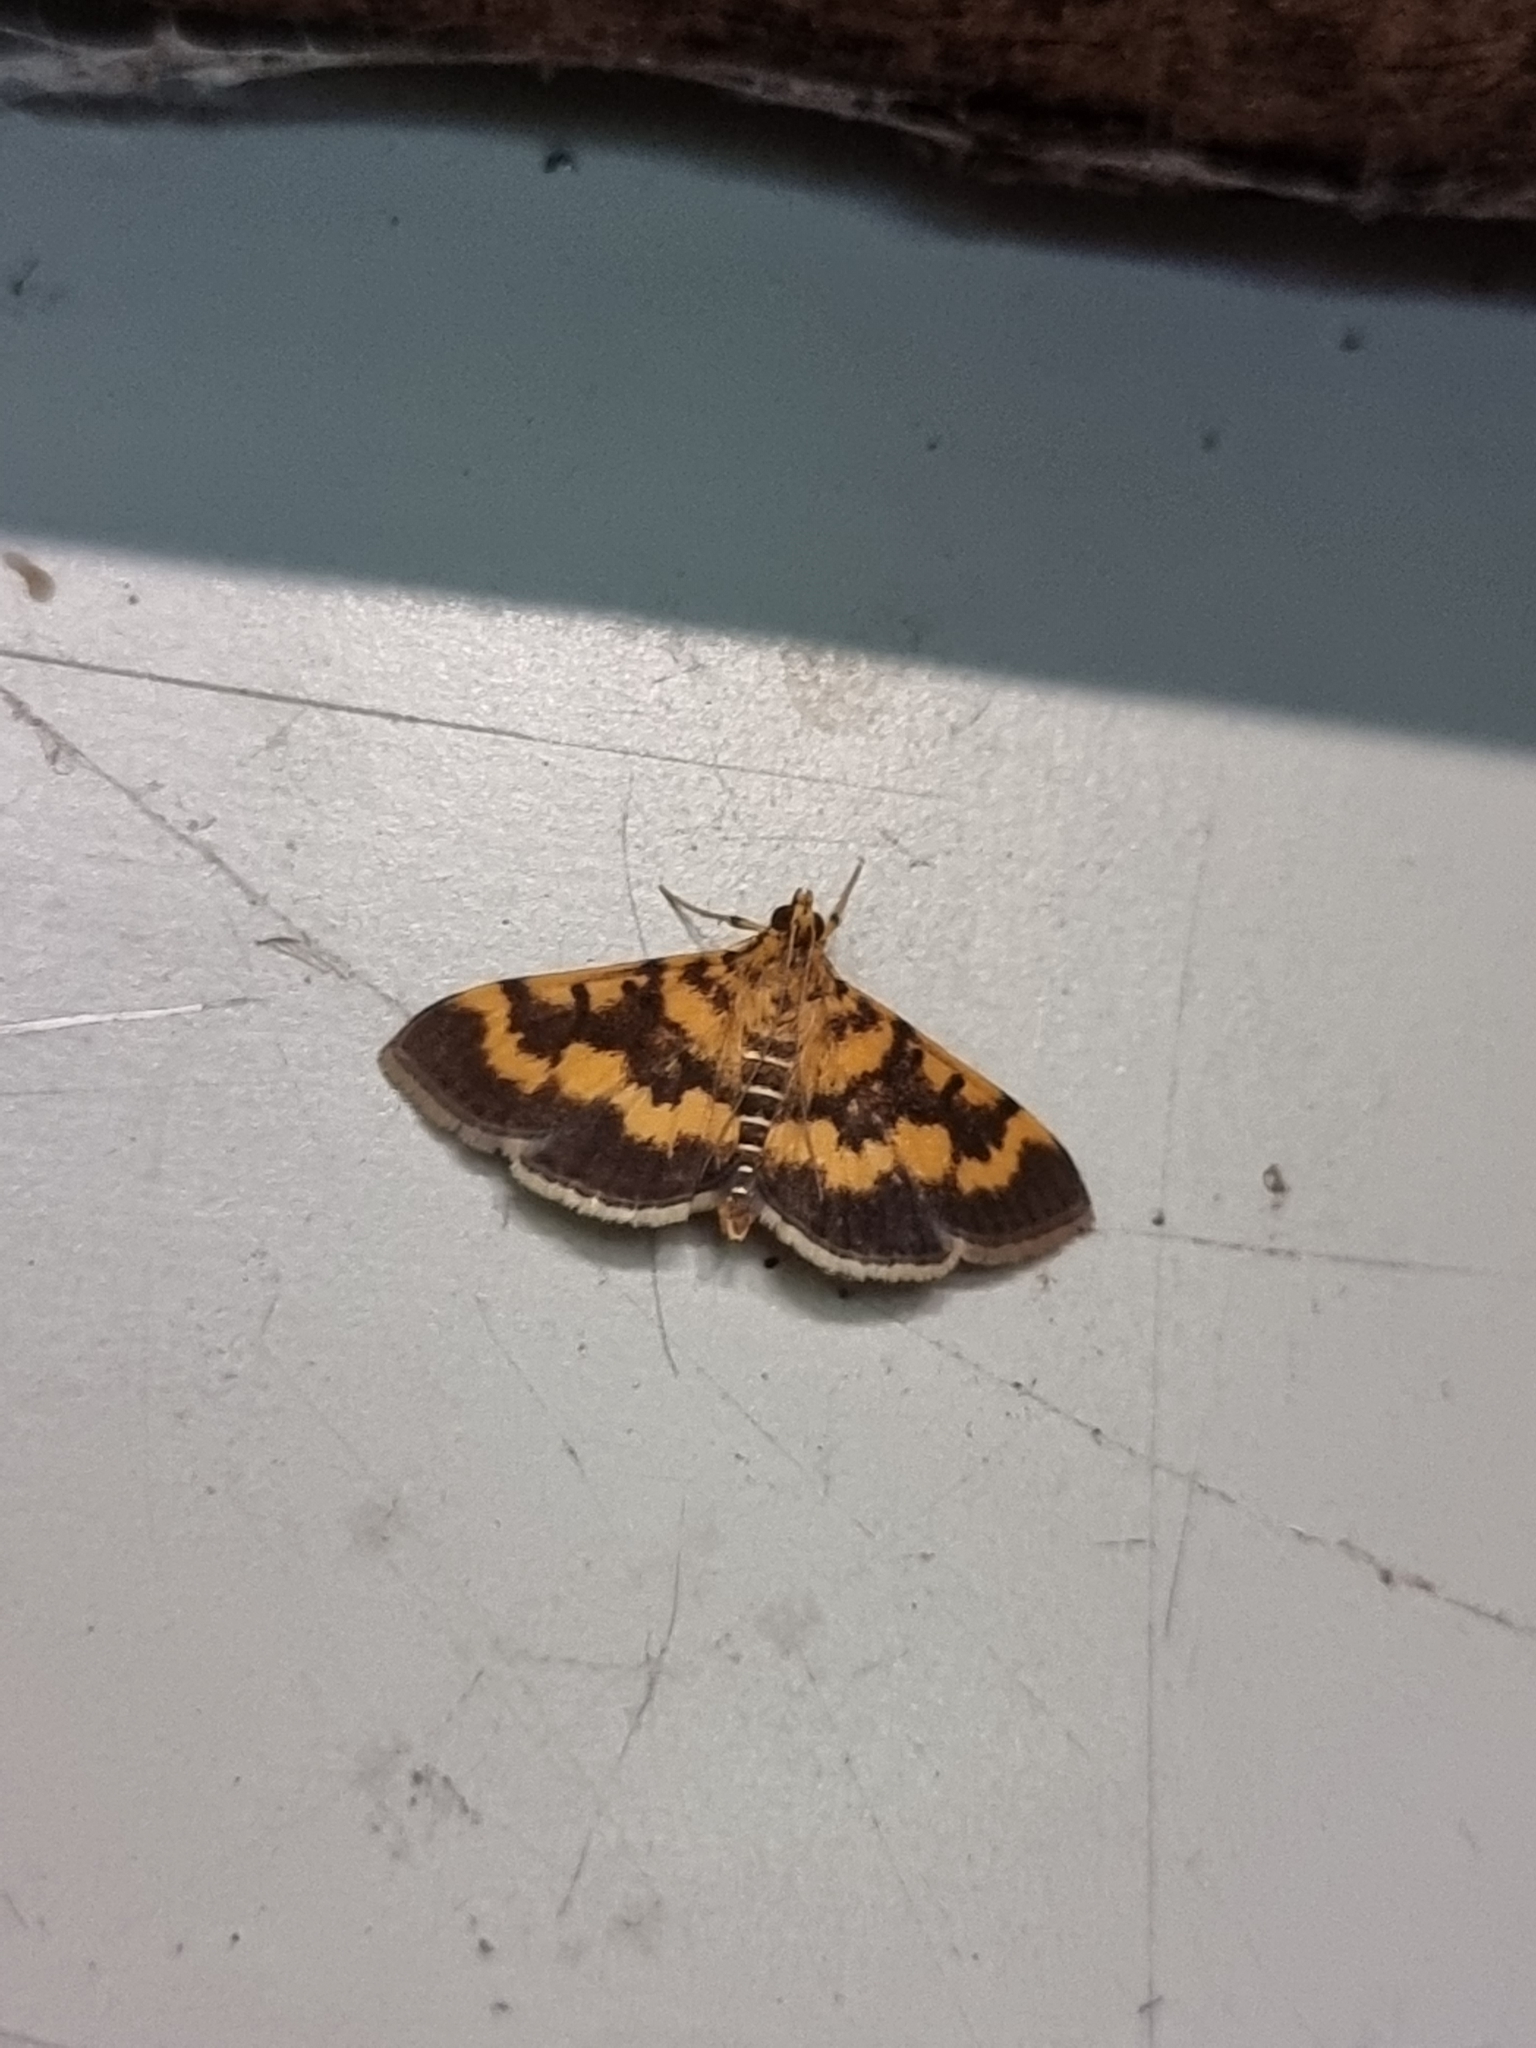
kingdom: Animalia
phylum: Arthropoda
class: Insecta
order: Lepidoptera
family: Crambidae
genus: Omiodes
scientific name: Omiodes diemenalis
